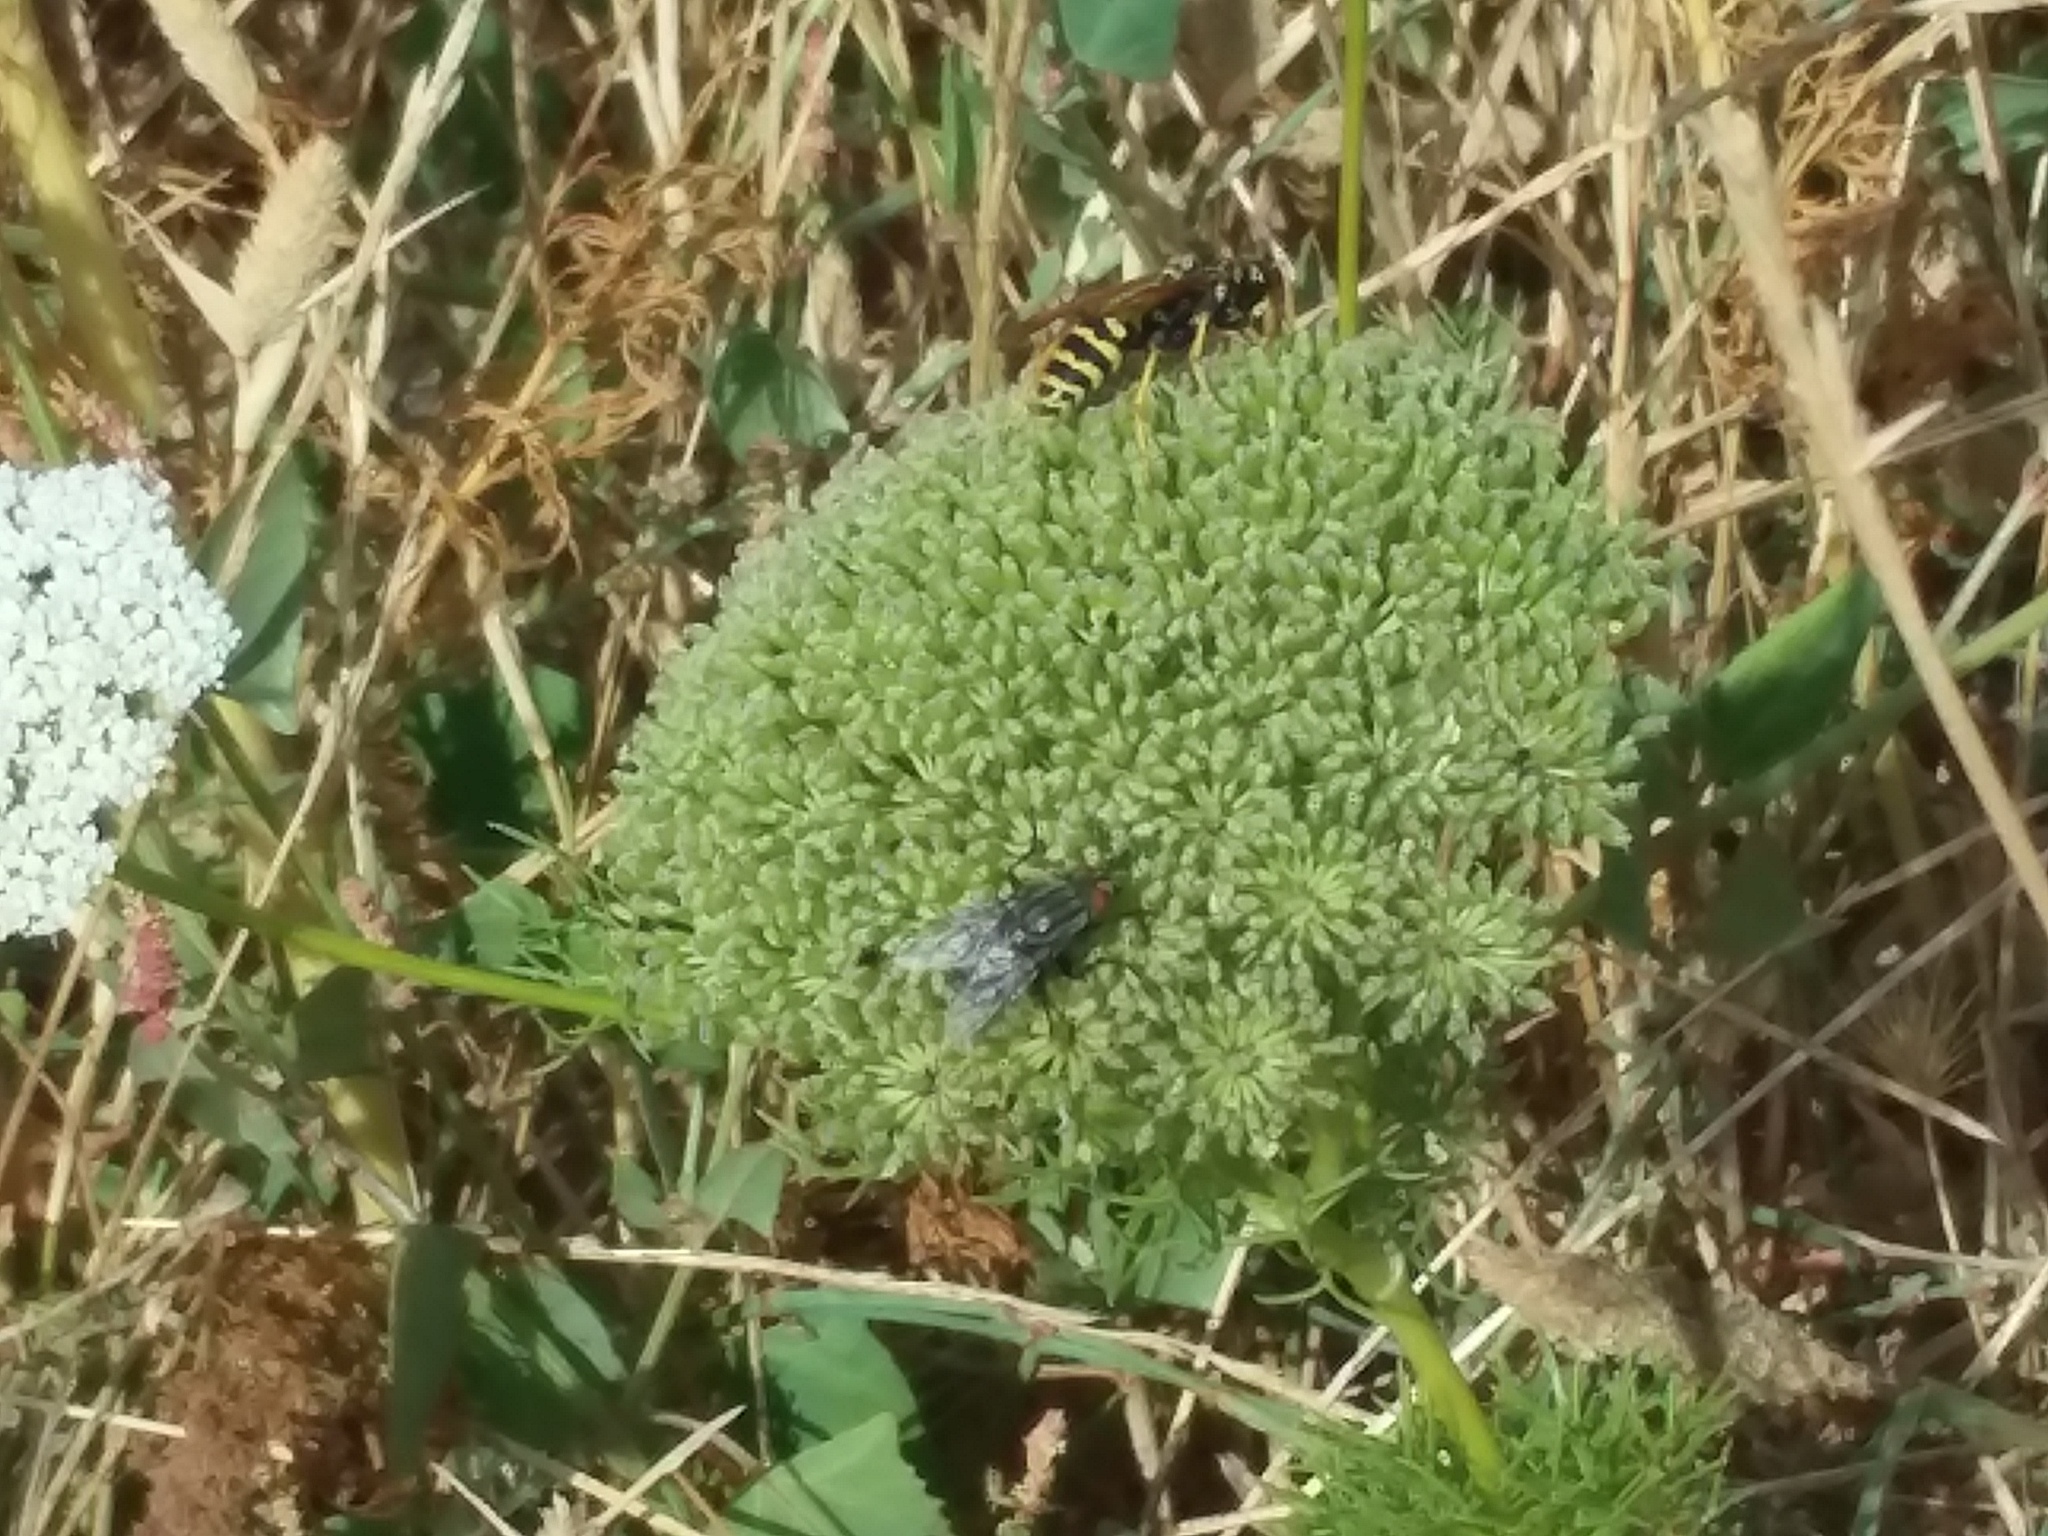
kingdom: Animalia
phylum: Arthropoda
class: Insecta
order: Hymenoptera
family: Eumenidae
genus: Polistes
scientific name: Polistes dominula
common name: Paper wasp
